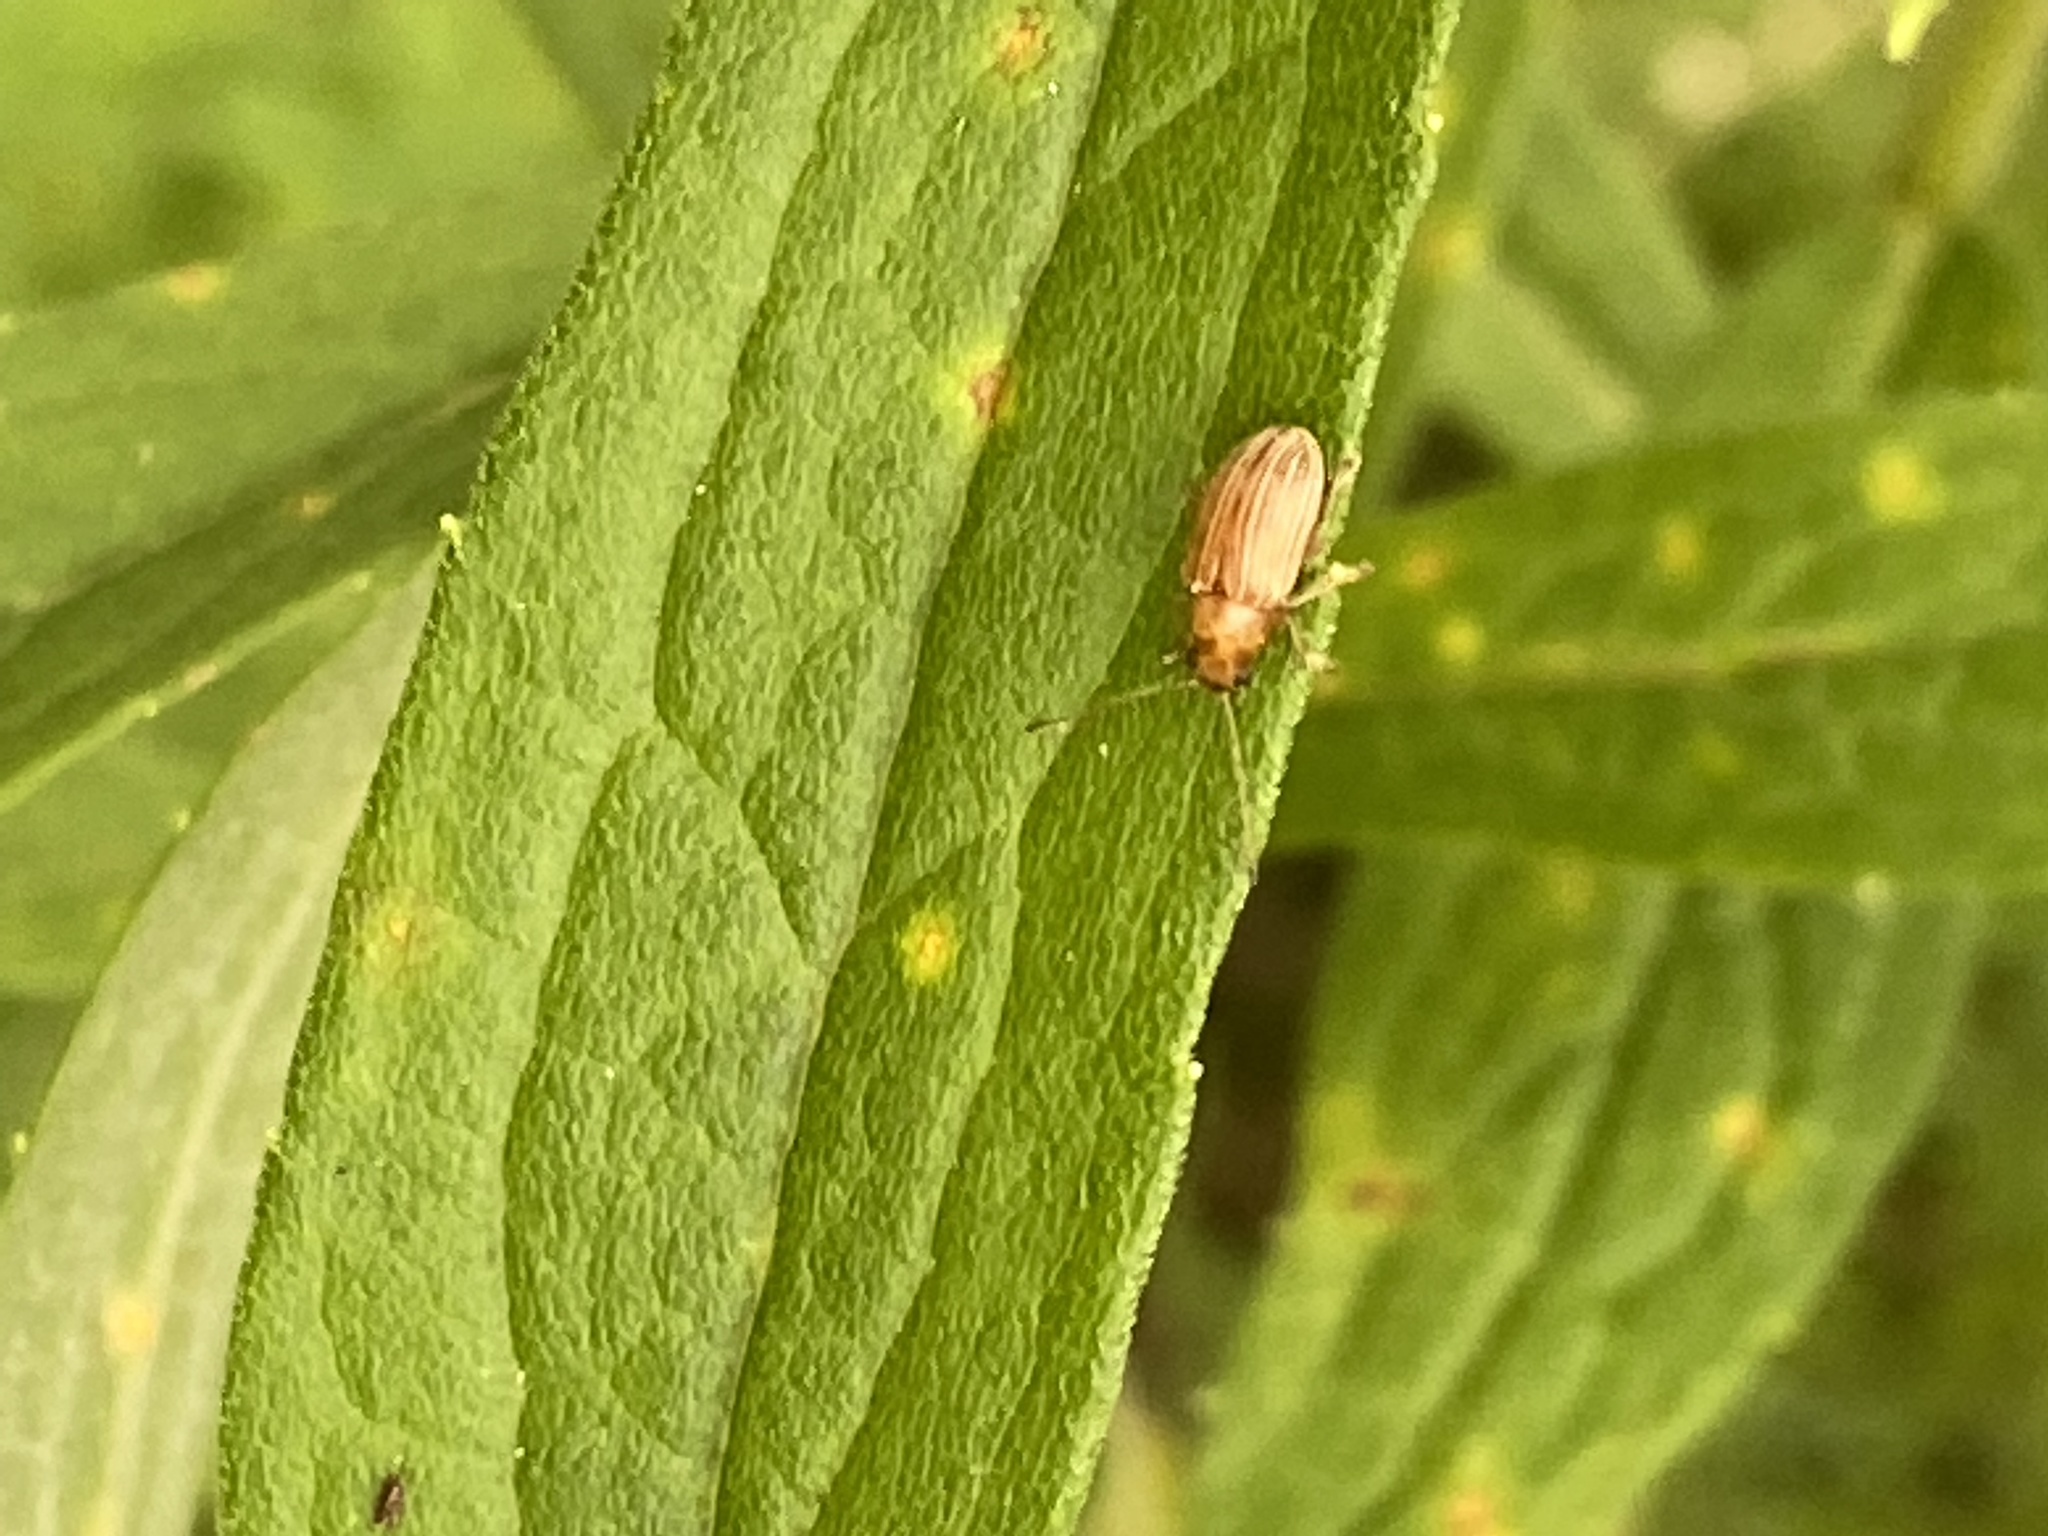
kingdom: Animalia
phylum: Arthropoda
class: Insecta
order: Coleoptera
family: Chrysomelidae
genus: Colaspis
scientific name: Colaspis brunnea
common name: Grape colaspis
